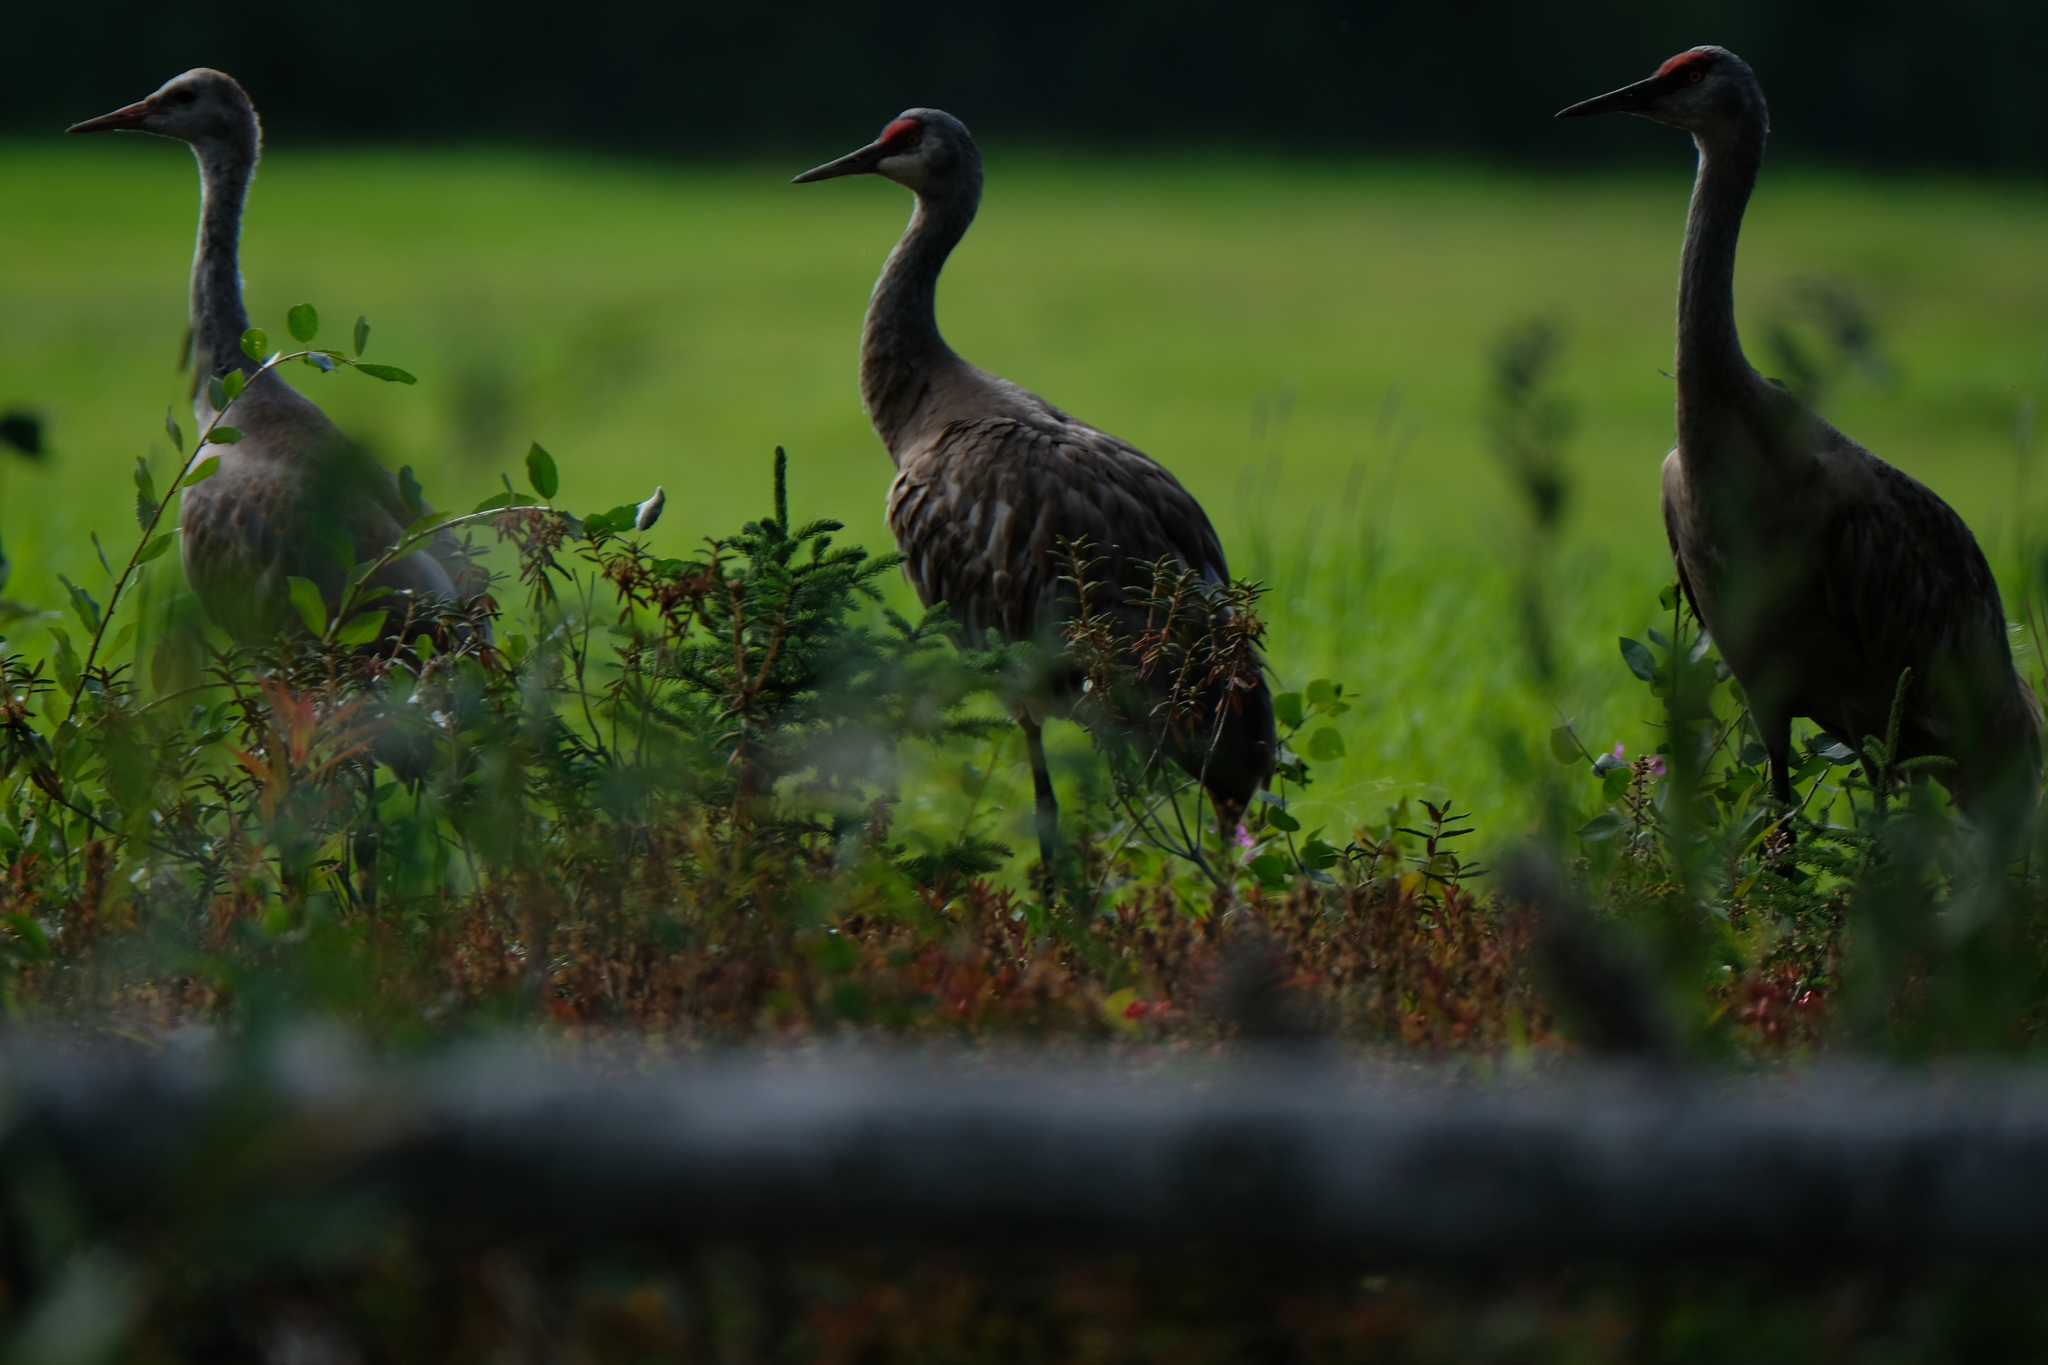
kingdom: Animalia
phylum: Chordata
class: Aves
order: Gruiformes
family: Gruidae
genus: Grus
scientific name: Grus canadensis
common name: Sandhill crane
